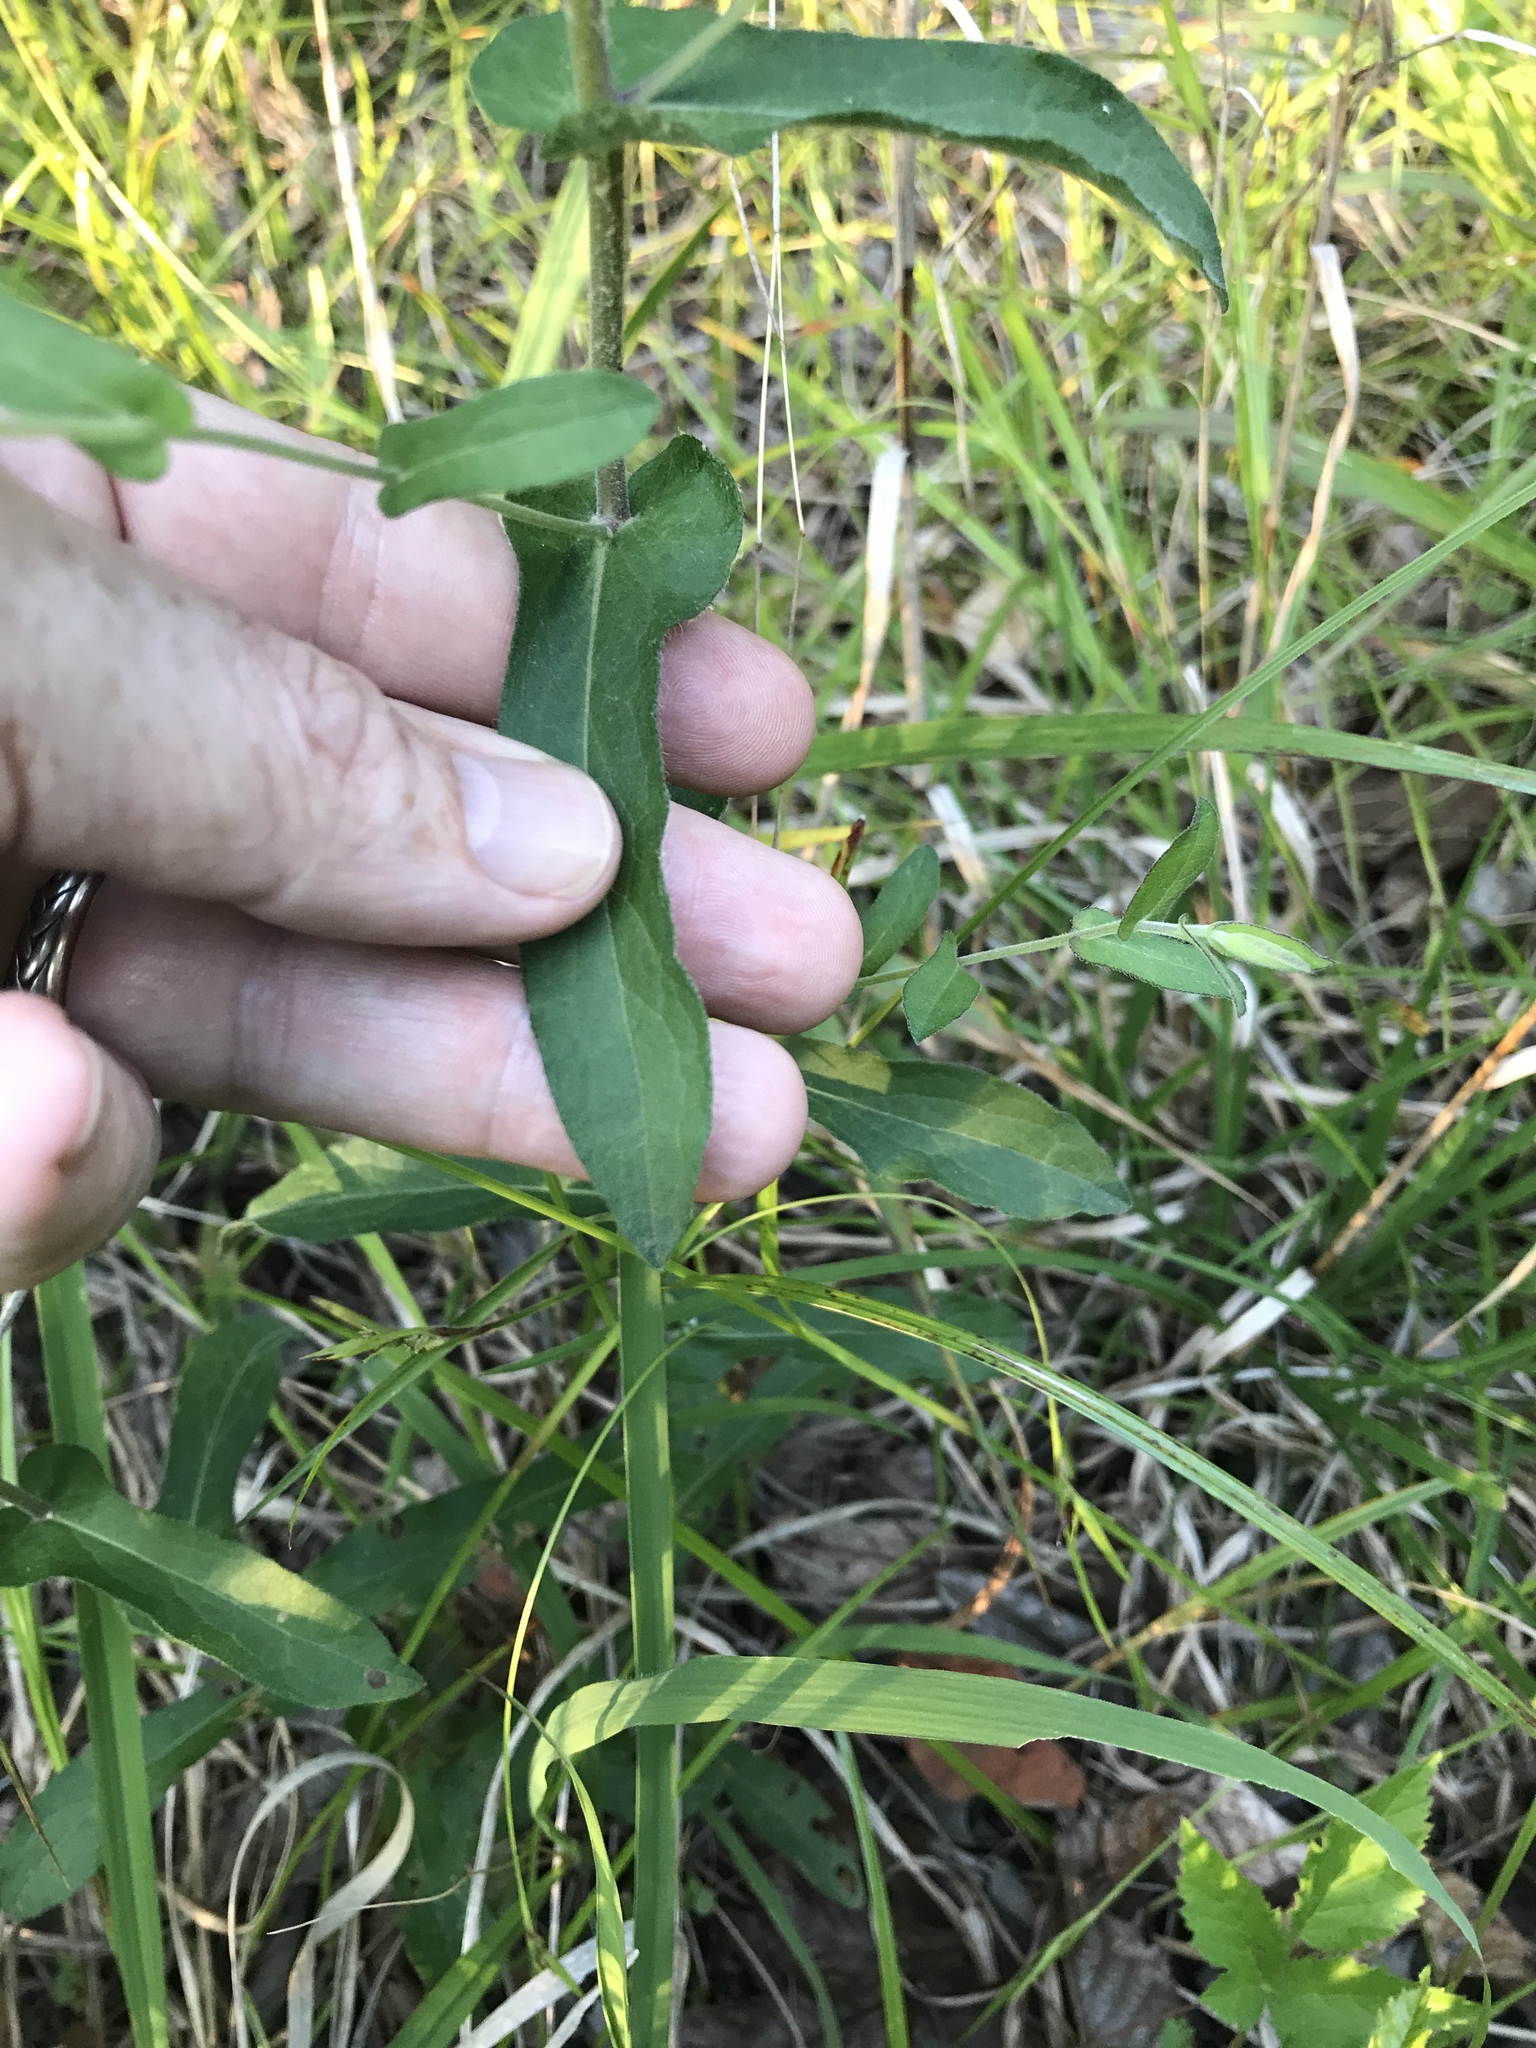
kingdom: Plantae
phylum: Tracheophyta
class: Magnoliopsida
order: Asterales
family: Asteraceae
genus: Symphyotrichum
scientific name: Symphyotrichum patens
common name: Late purple aster
